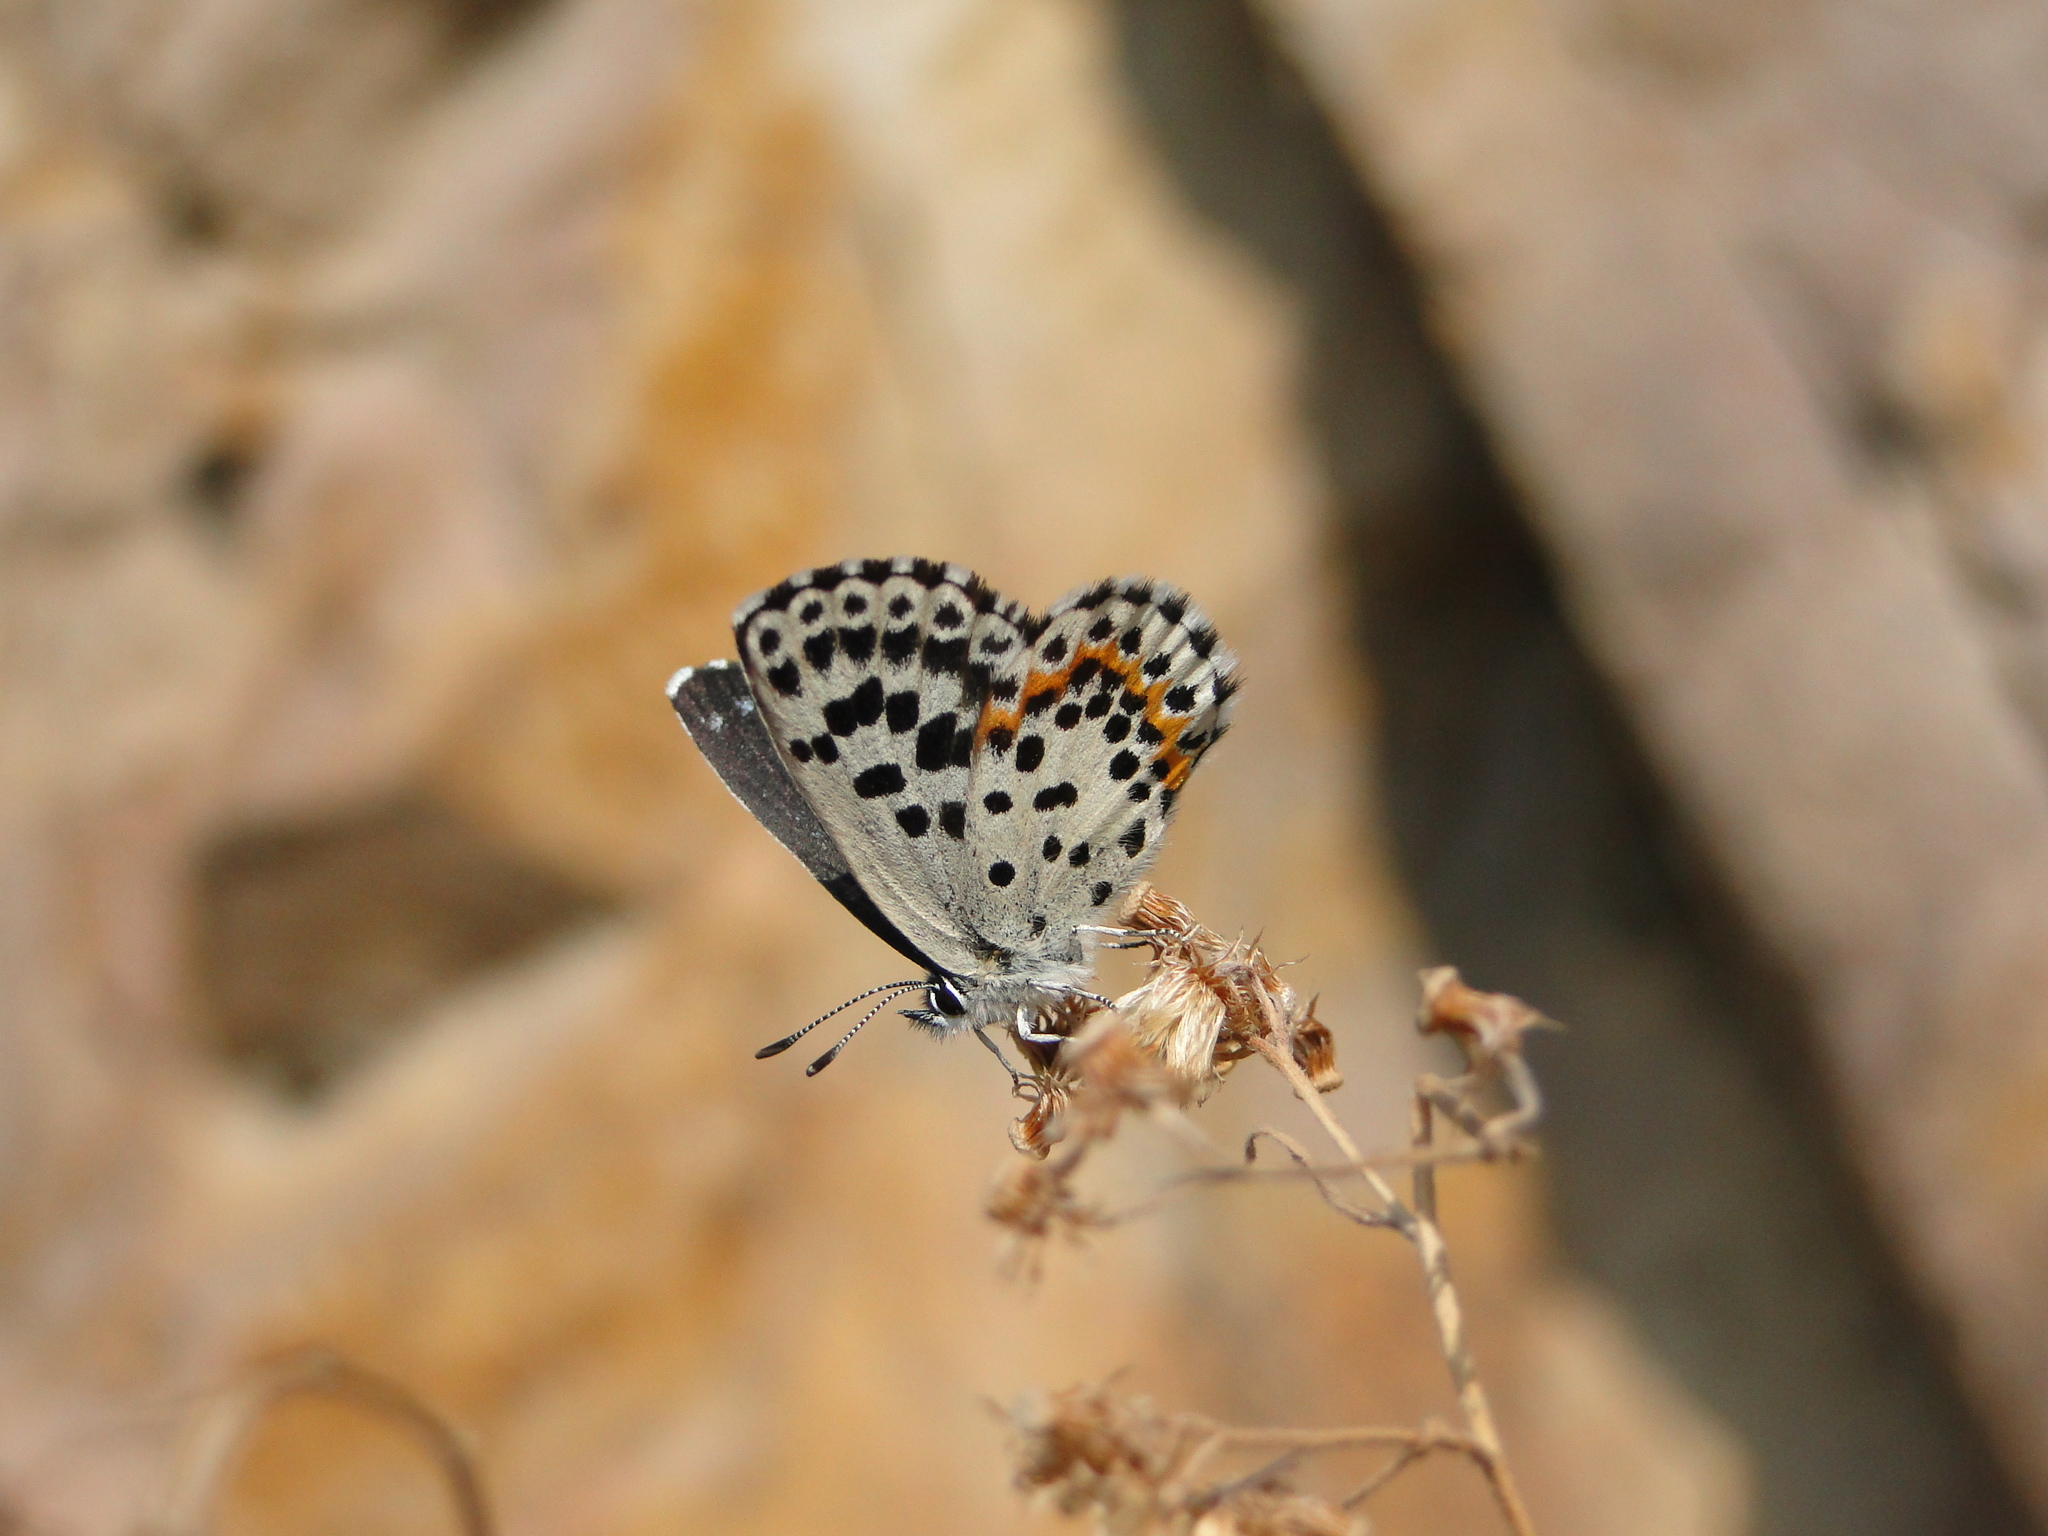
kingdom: Animalia
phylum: Arthropoda
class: Insecta
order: Lepidoptera
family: Lycaenidae
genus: Scolitantides
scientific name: Scolitantides orion
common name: Chequered blue
